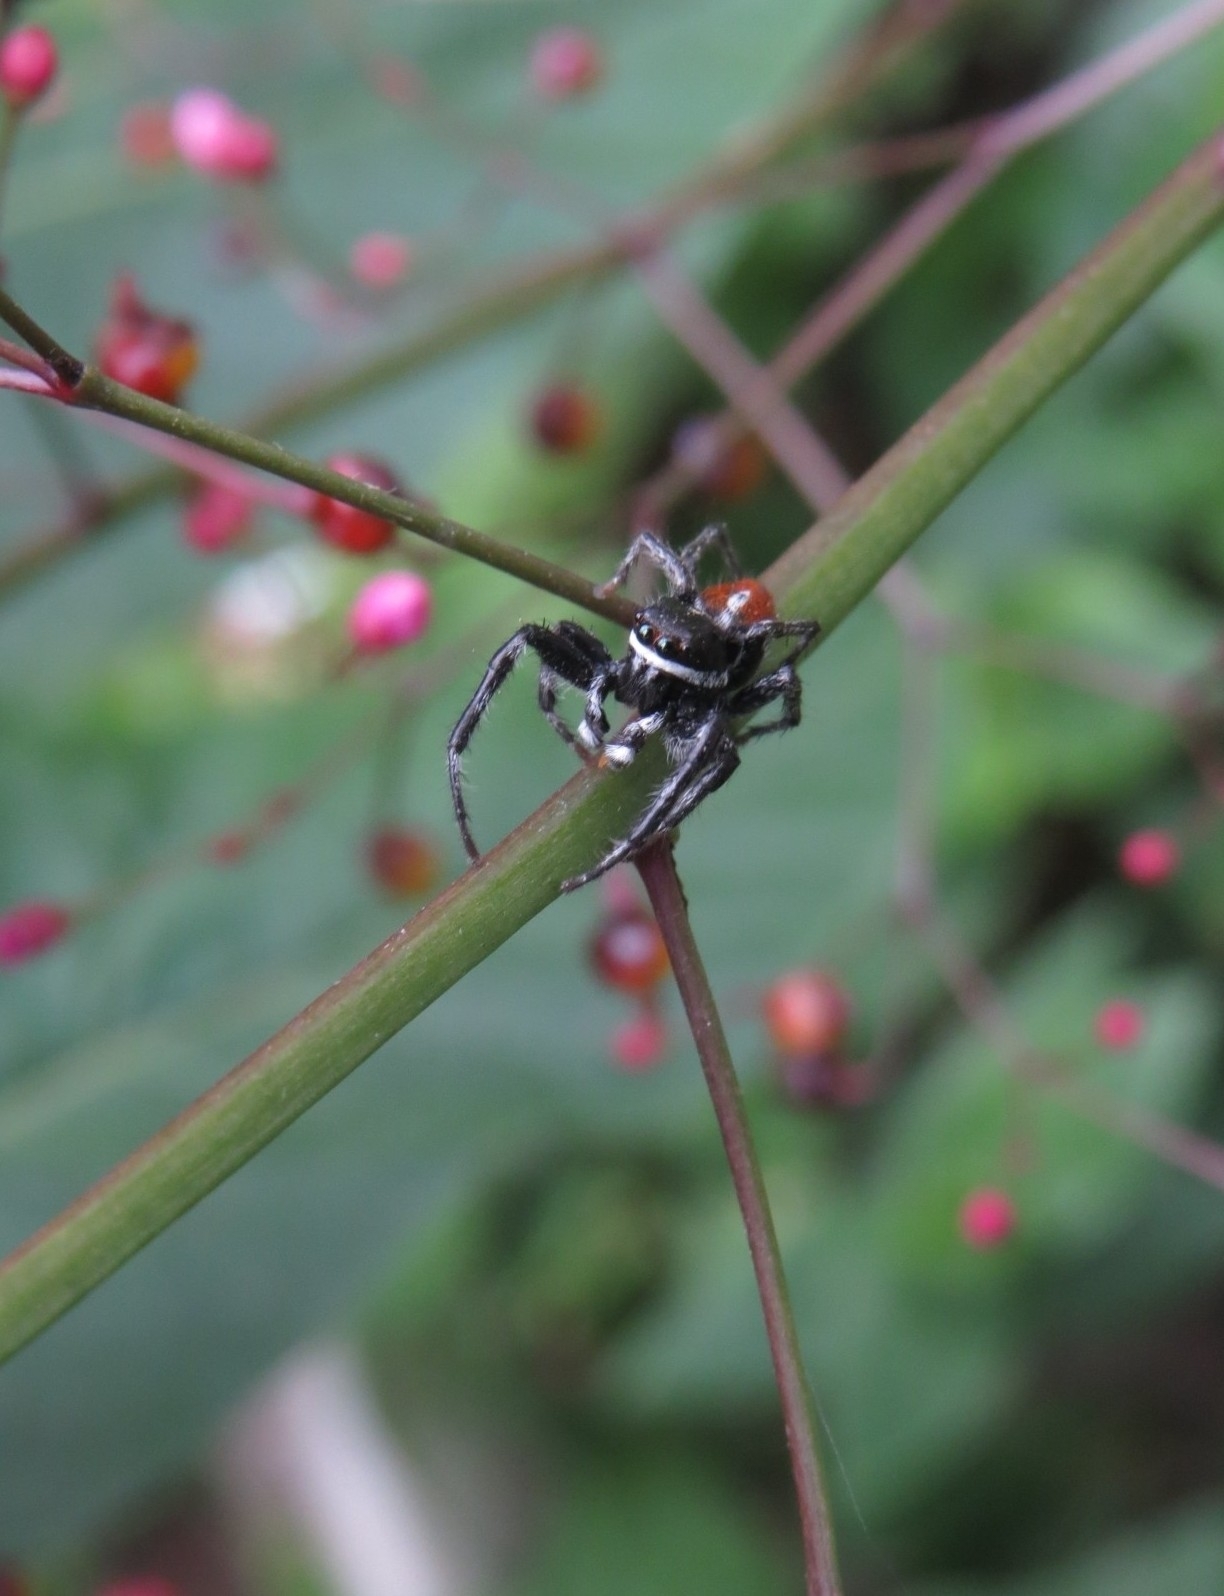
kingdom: Animalia
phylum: Arthropoda
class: Arachnida
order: Araneae
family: Salticidae
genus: Phiale
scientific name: Phiale roburifoliata
